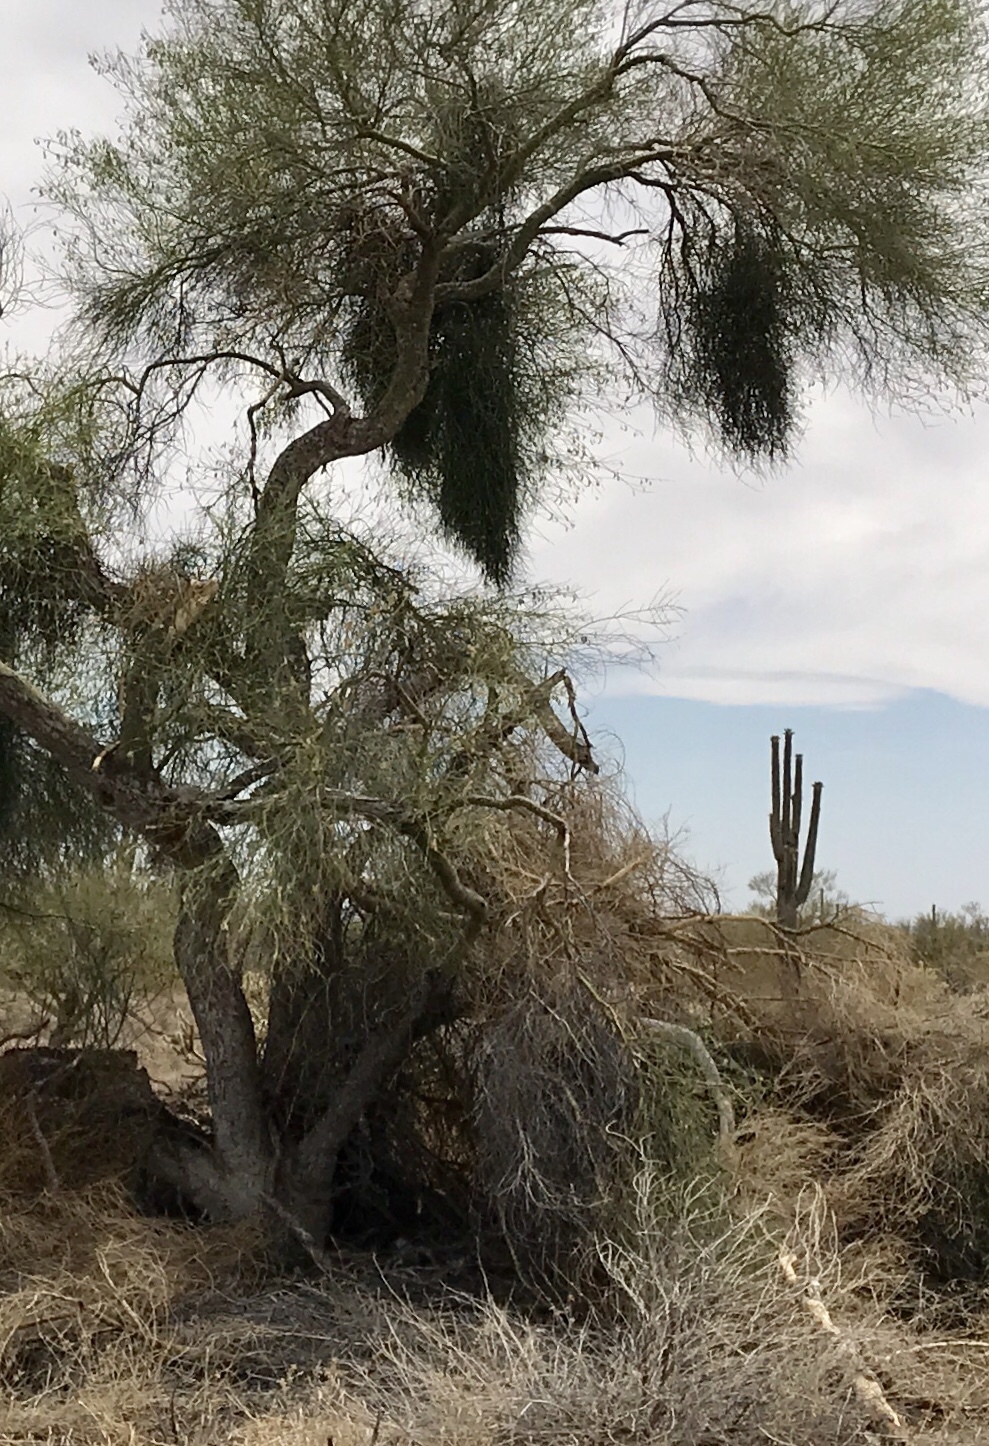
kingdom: Plantae
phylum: Tracheophyta
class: Magnoliopsida
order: Santalales
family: Viscaceae
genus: Phoradendron
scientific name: Phoradendron californicum
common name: Acacia mistletoe
